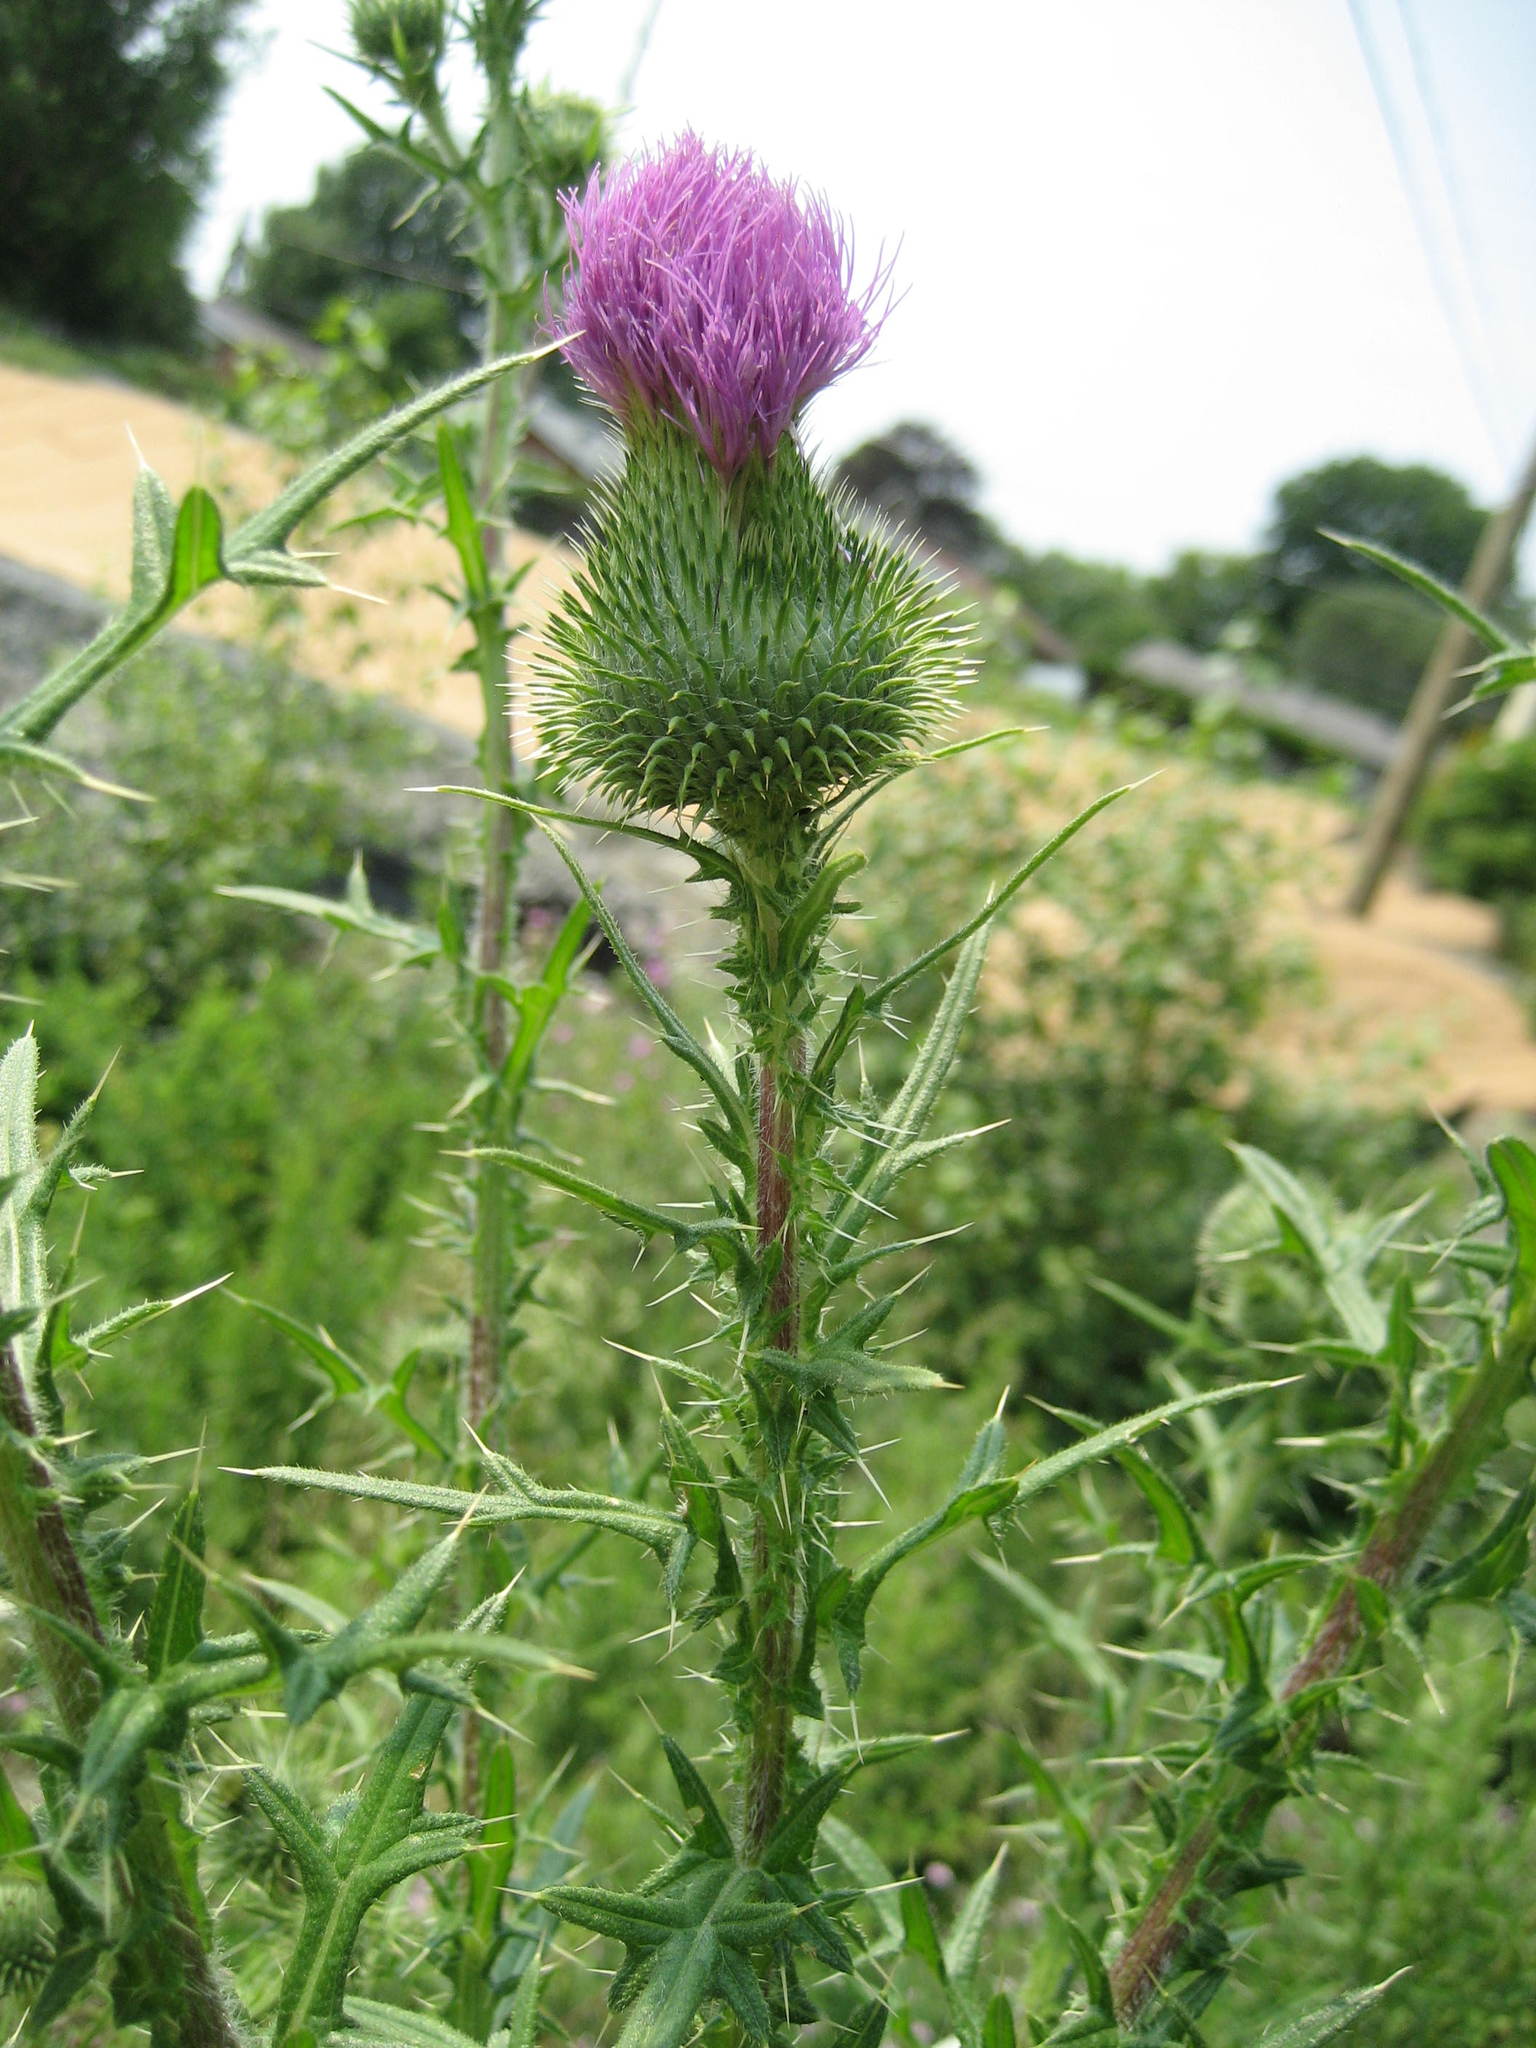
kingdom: Plantae
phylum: Tracheophyta
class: Magnoliopsida
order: Asterales
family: Asteraceae
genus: Cirsium
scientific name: Cirsium vulgare
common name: Bull thistle
